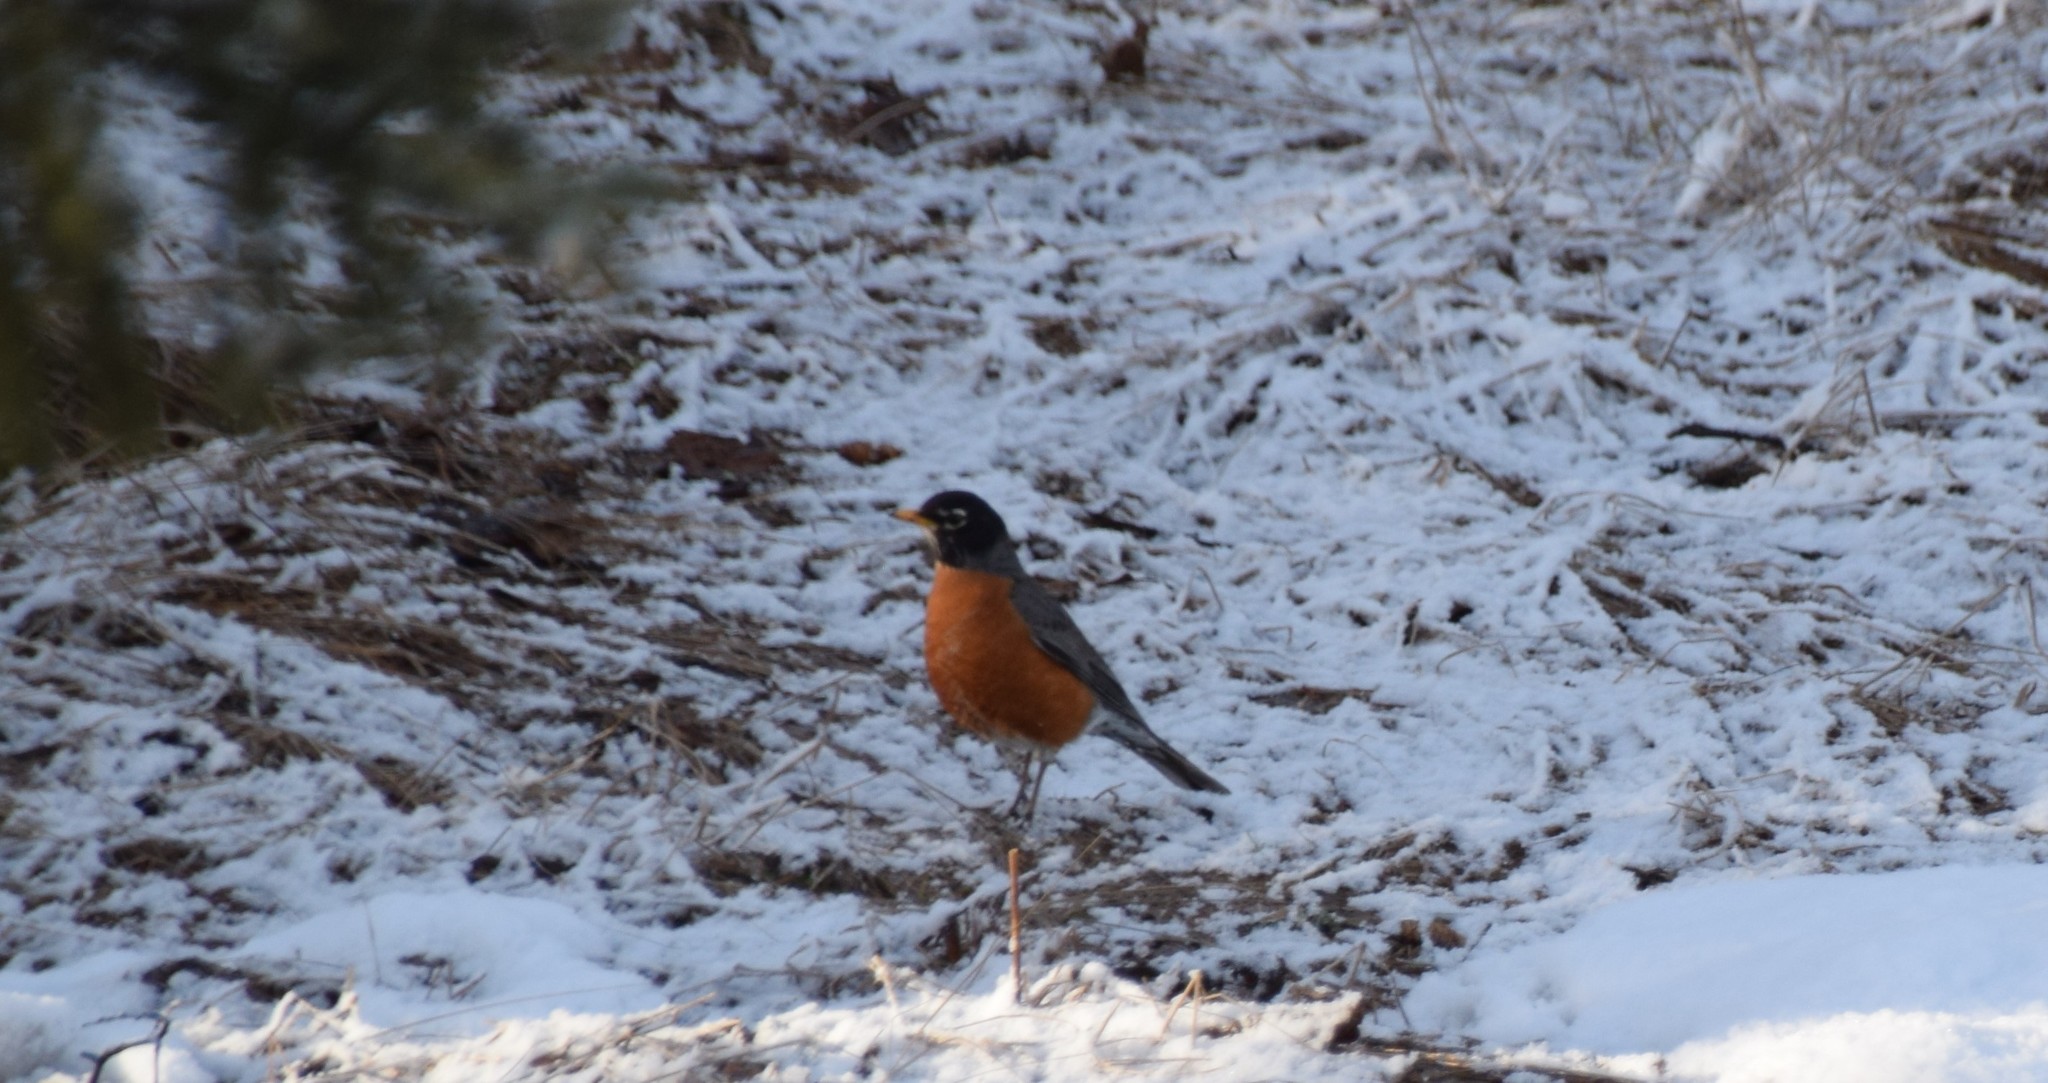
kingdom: Animalia
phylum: Chordata
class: Aves
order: Passeriformes
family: Turdidae
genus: Turdus
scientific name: Turdus migratorius
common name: American robin
